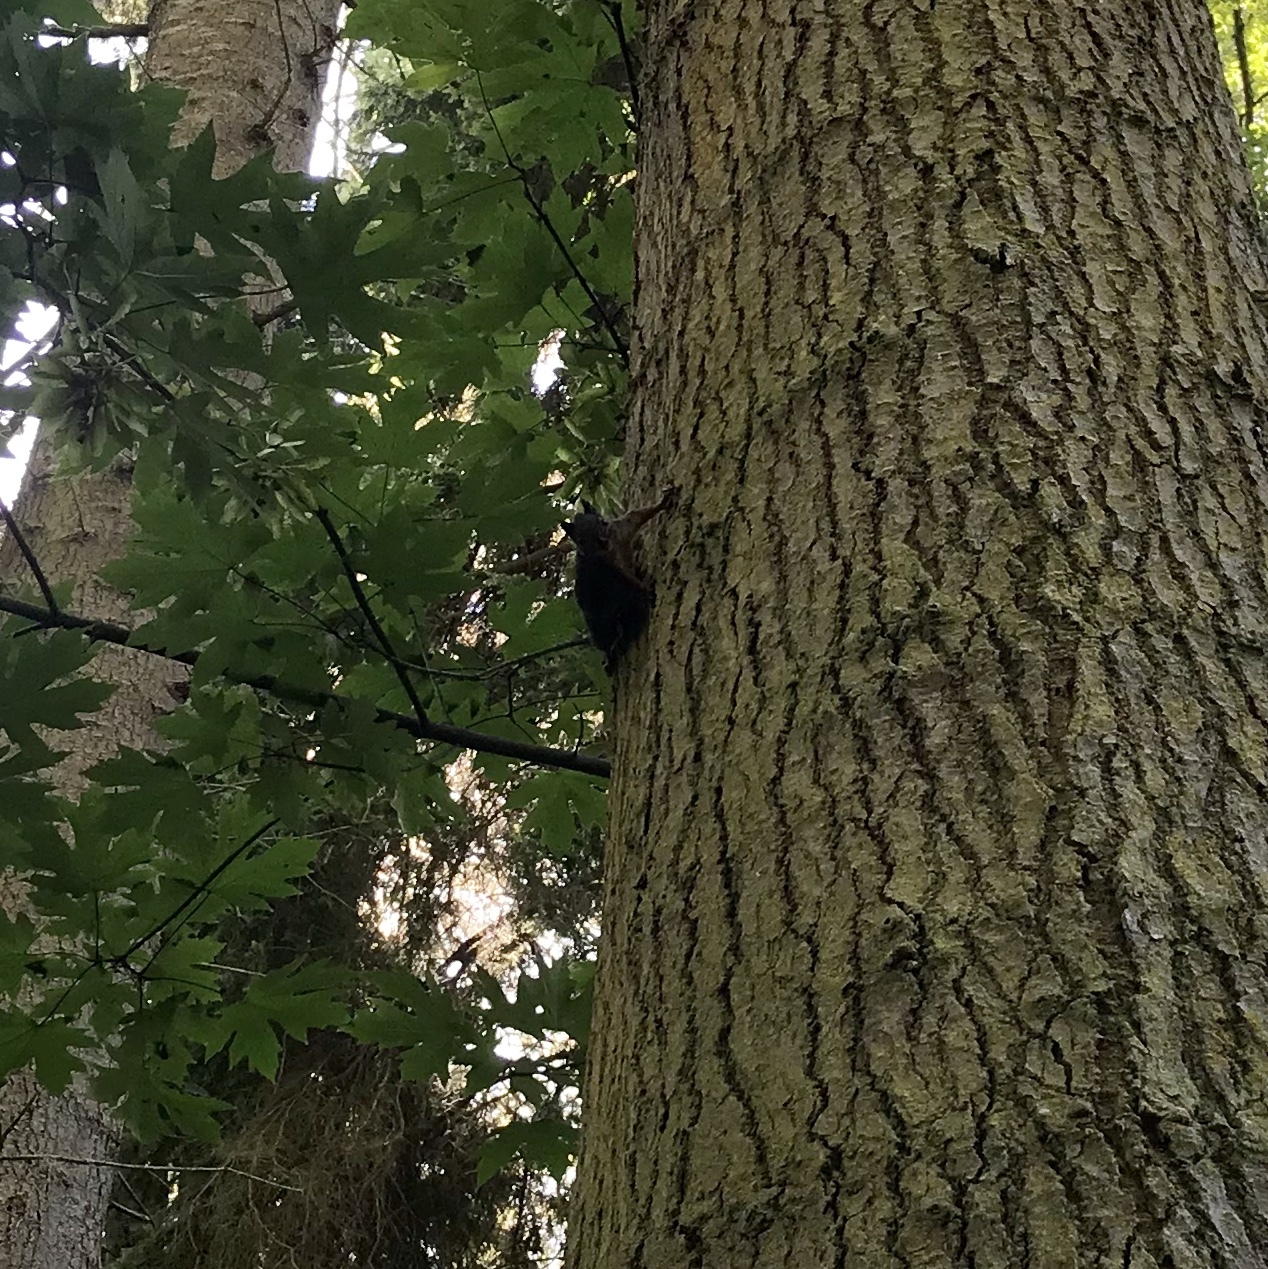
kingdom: Animalia
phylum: Chordata
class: Mammalia
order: Rodentia
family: Sciuridae
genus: Tamiasciurus
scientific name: Tamiasciurus douglasii
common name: Douglas's squirrel
